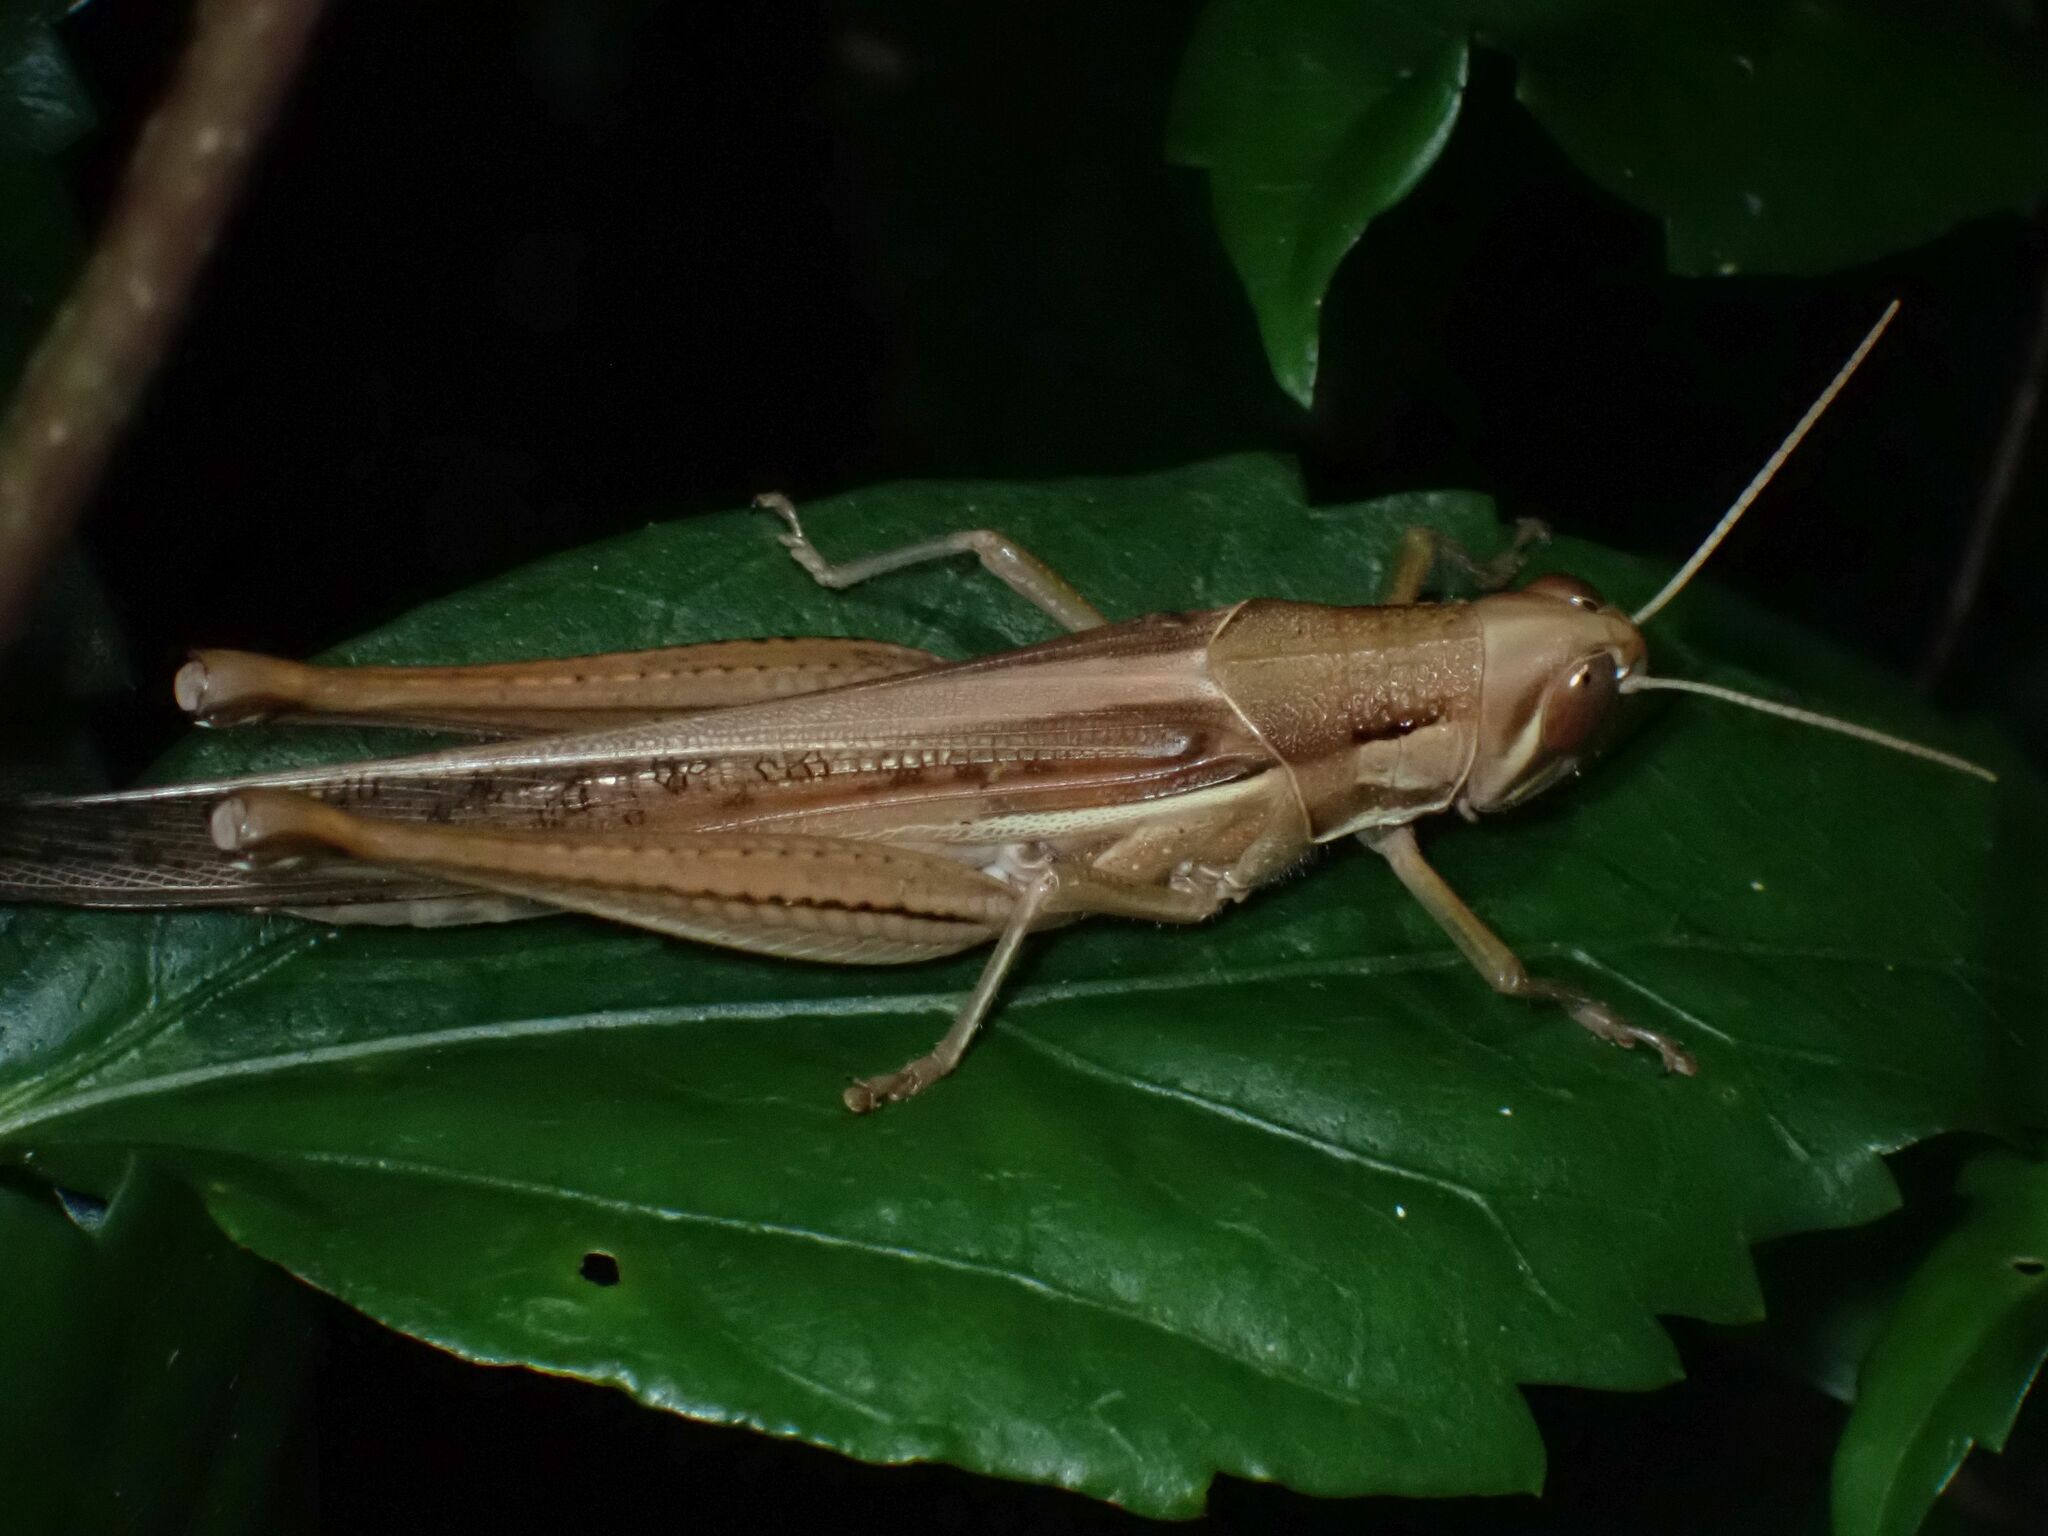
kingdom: Animalia
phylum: Arthropoda
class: Insecta
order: Orthoptera
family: Acrididae
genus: Austracris
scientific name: Austracris guttulosa
